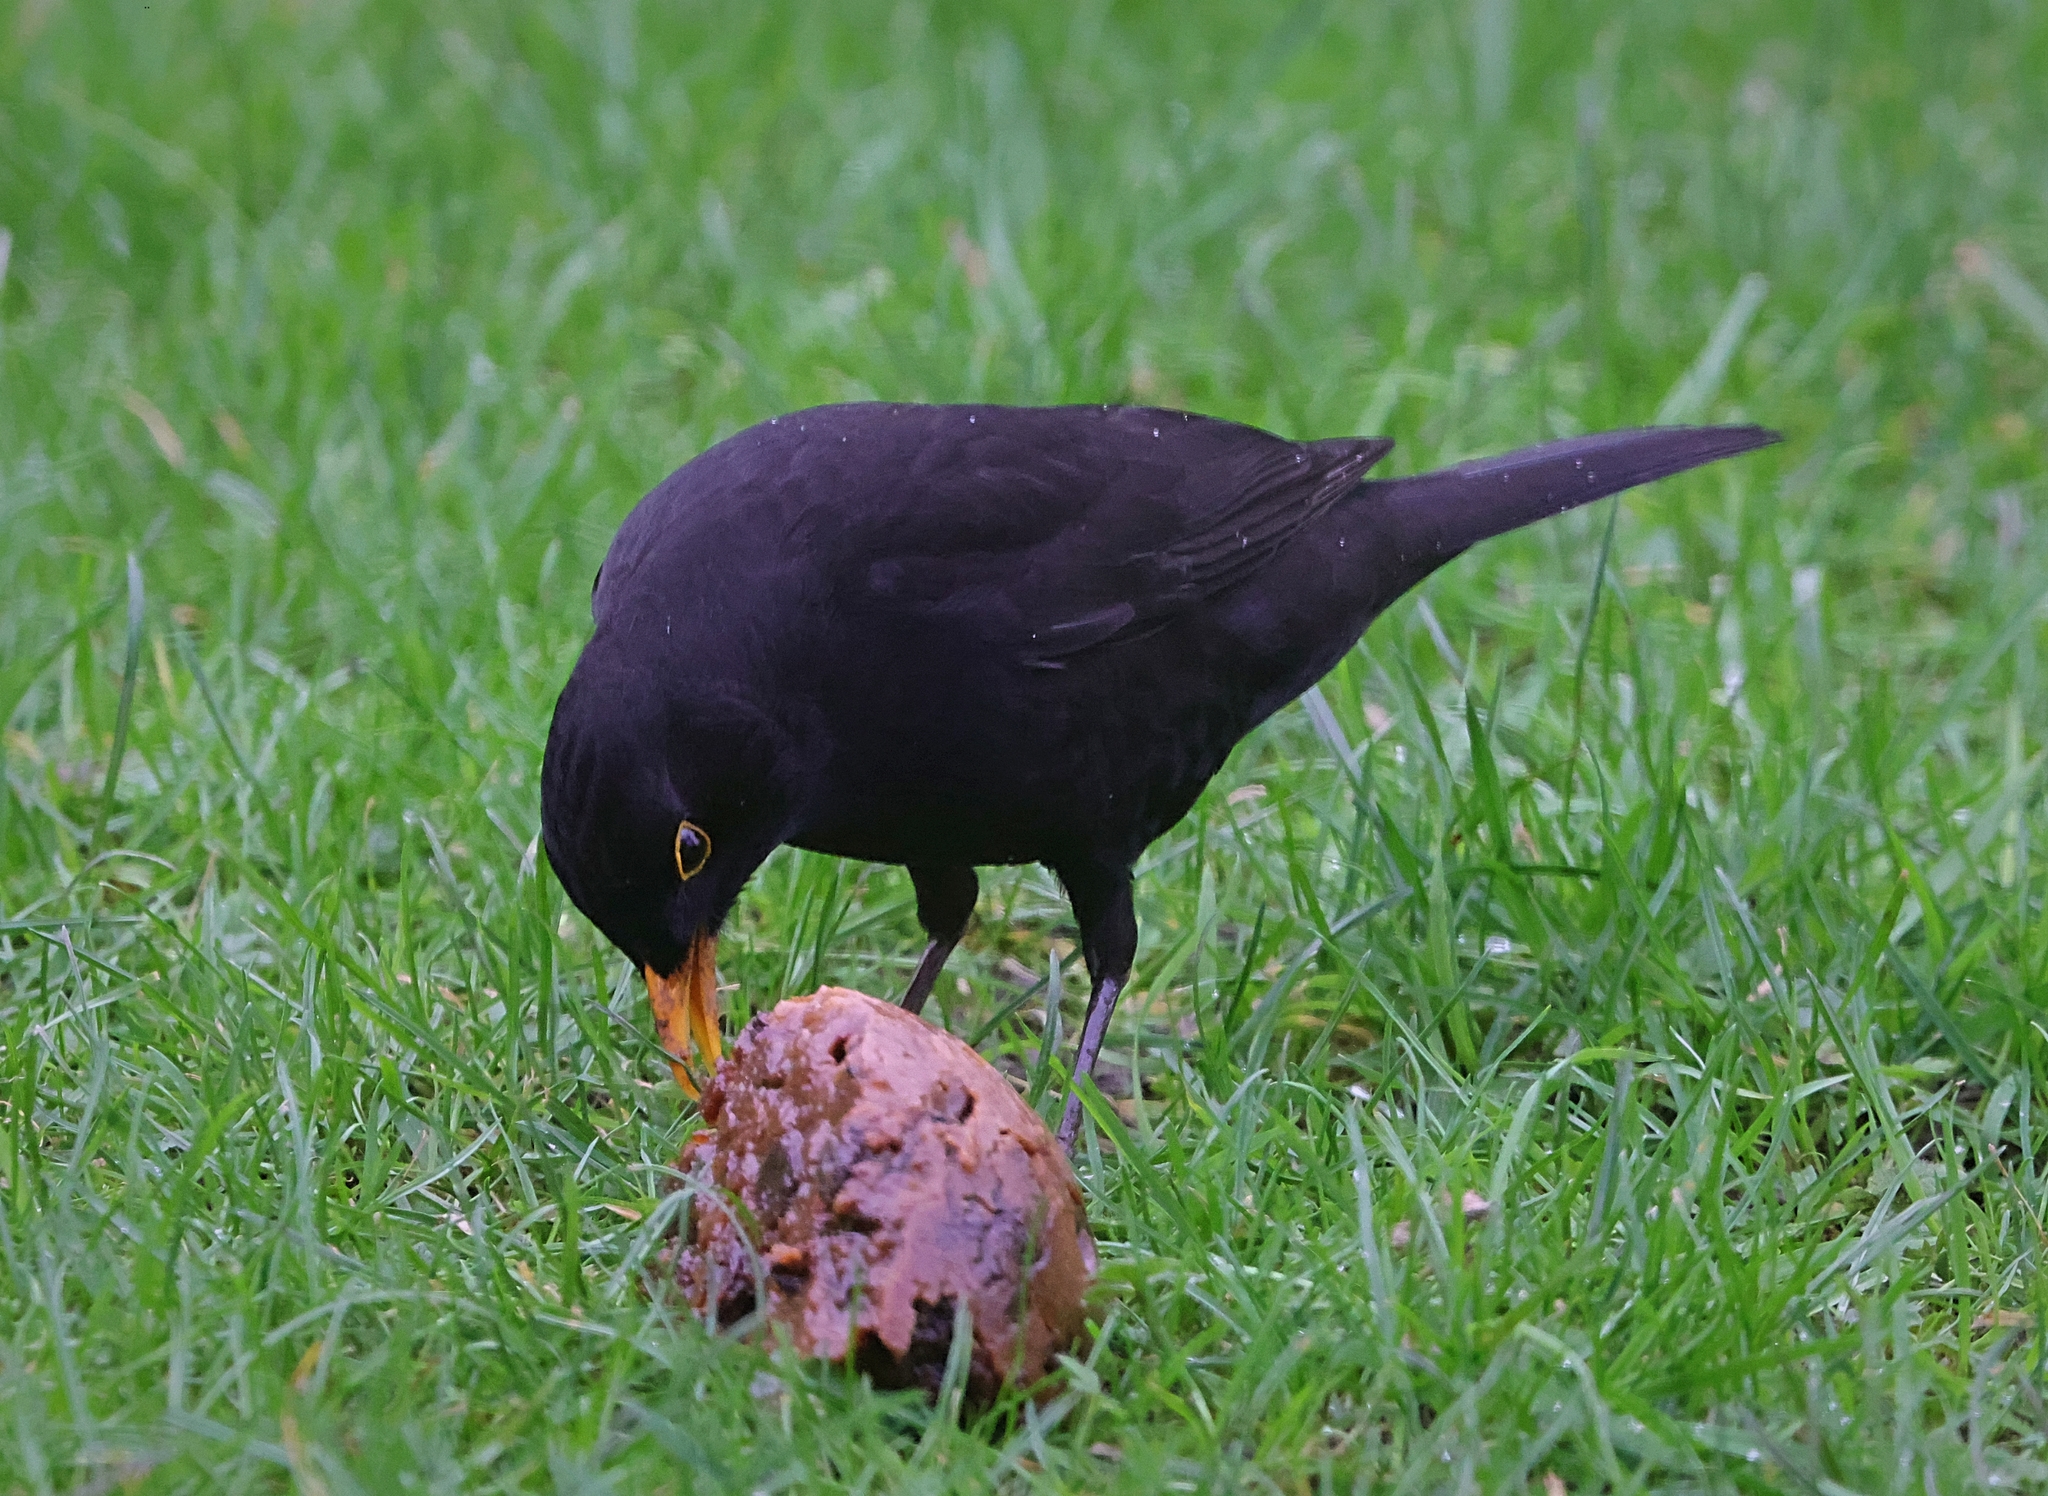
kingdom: Animalia
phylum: Chordata
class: Aves
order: Passeriformes
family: Turdidae
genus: Turdus
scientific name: Turdus merula
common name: Common blackbird
